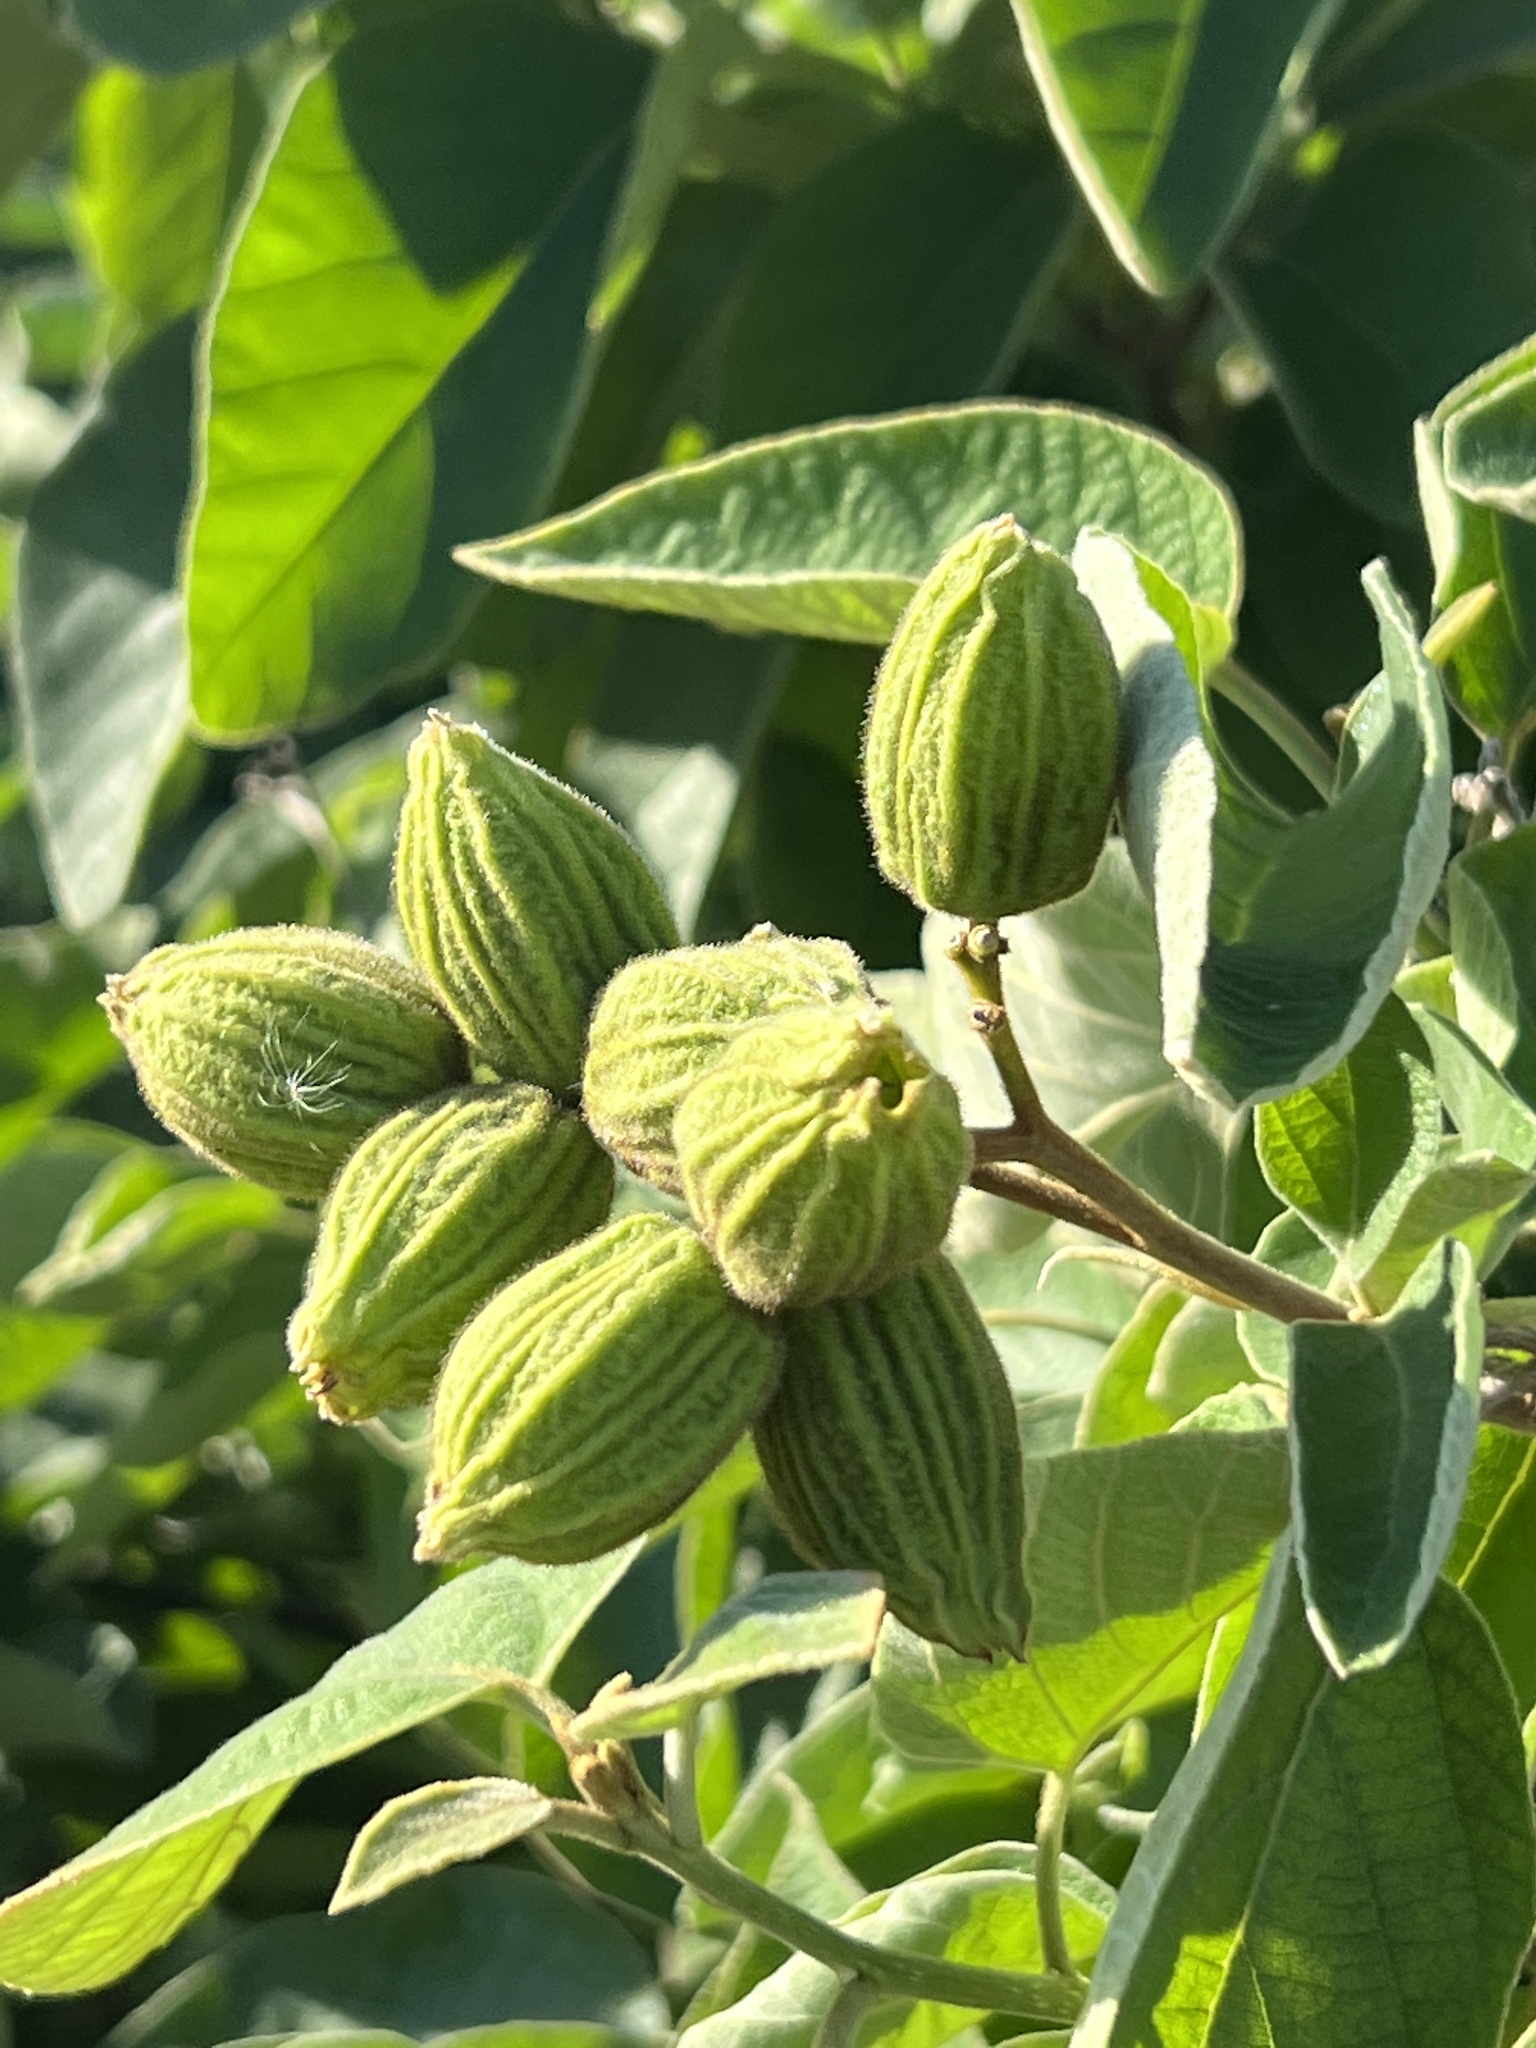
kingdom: Plantae
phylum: Tracheophyta
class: Magnoliopsida
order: Boraginales
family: Cordiaceae
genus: Cordia
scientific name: Cordia boissieri
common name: Mexican-olive
